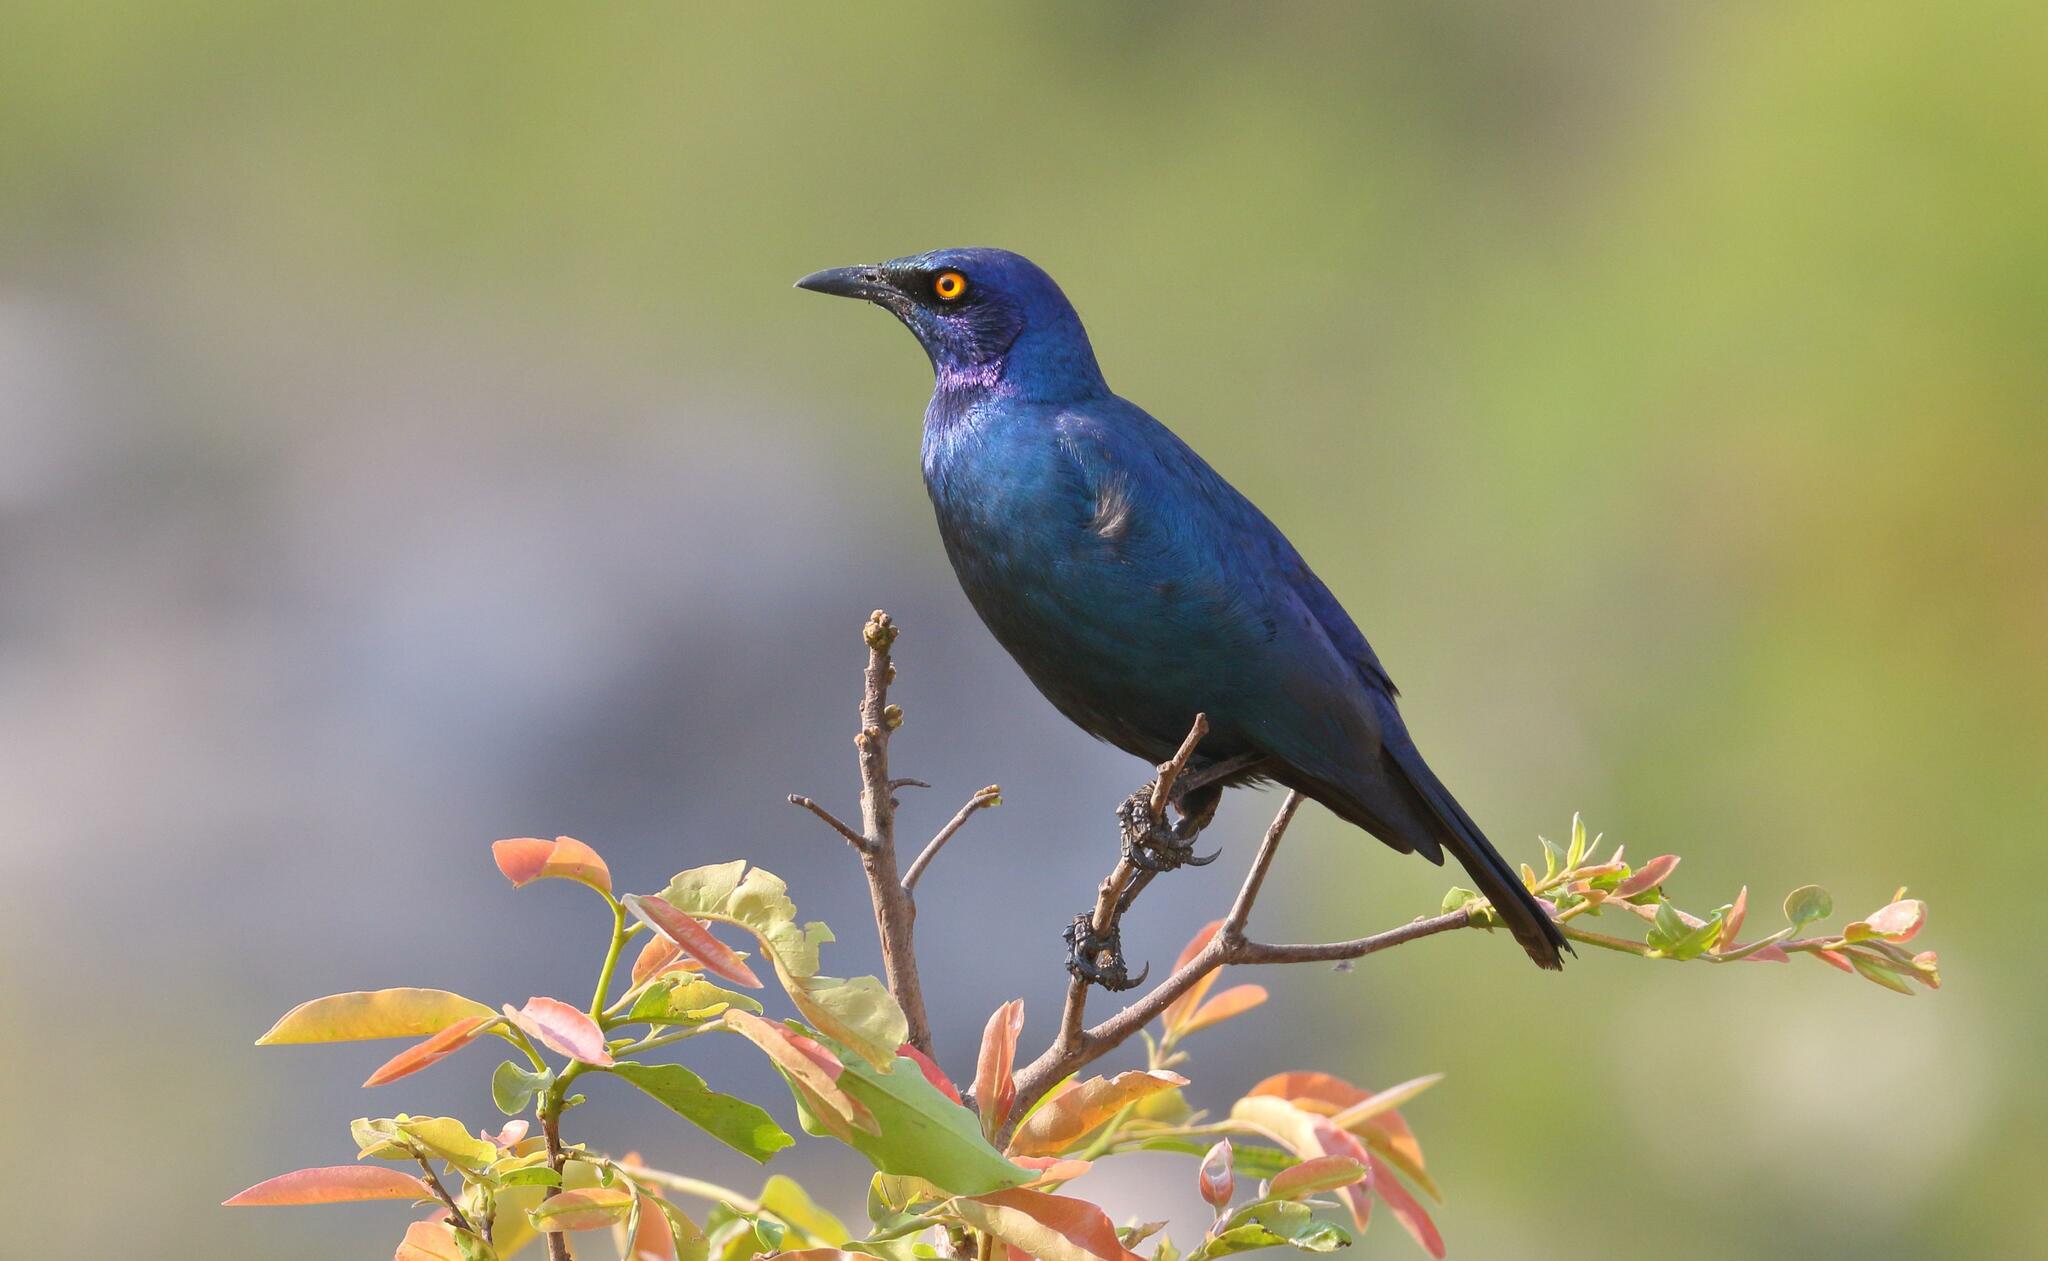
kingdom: Animalia
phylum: Chordata
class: Aves
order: Passeriformes
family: Sturnidae
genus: Lamprotornis
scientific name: Lamprotornis nitens
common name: Cape starling
